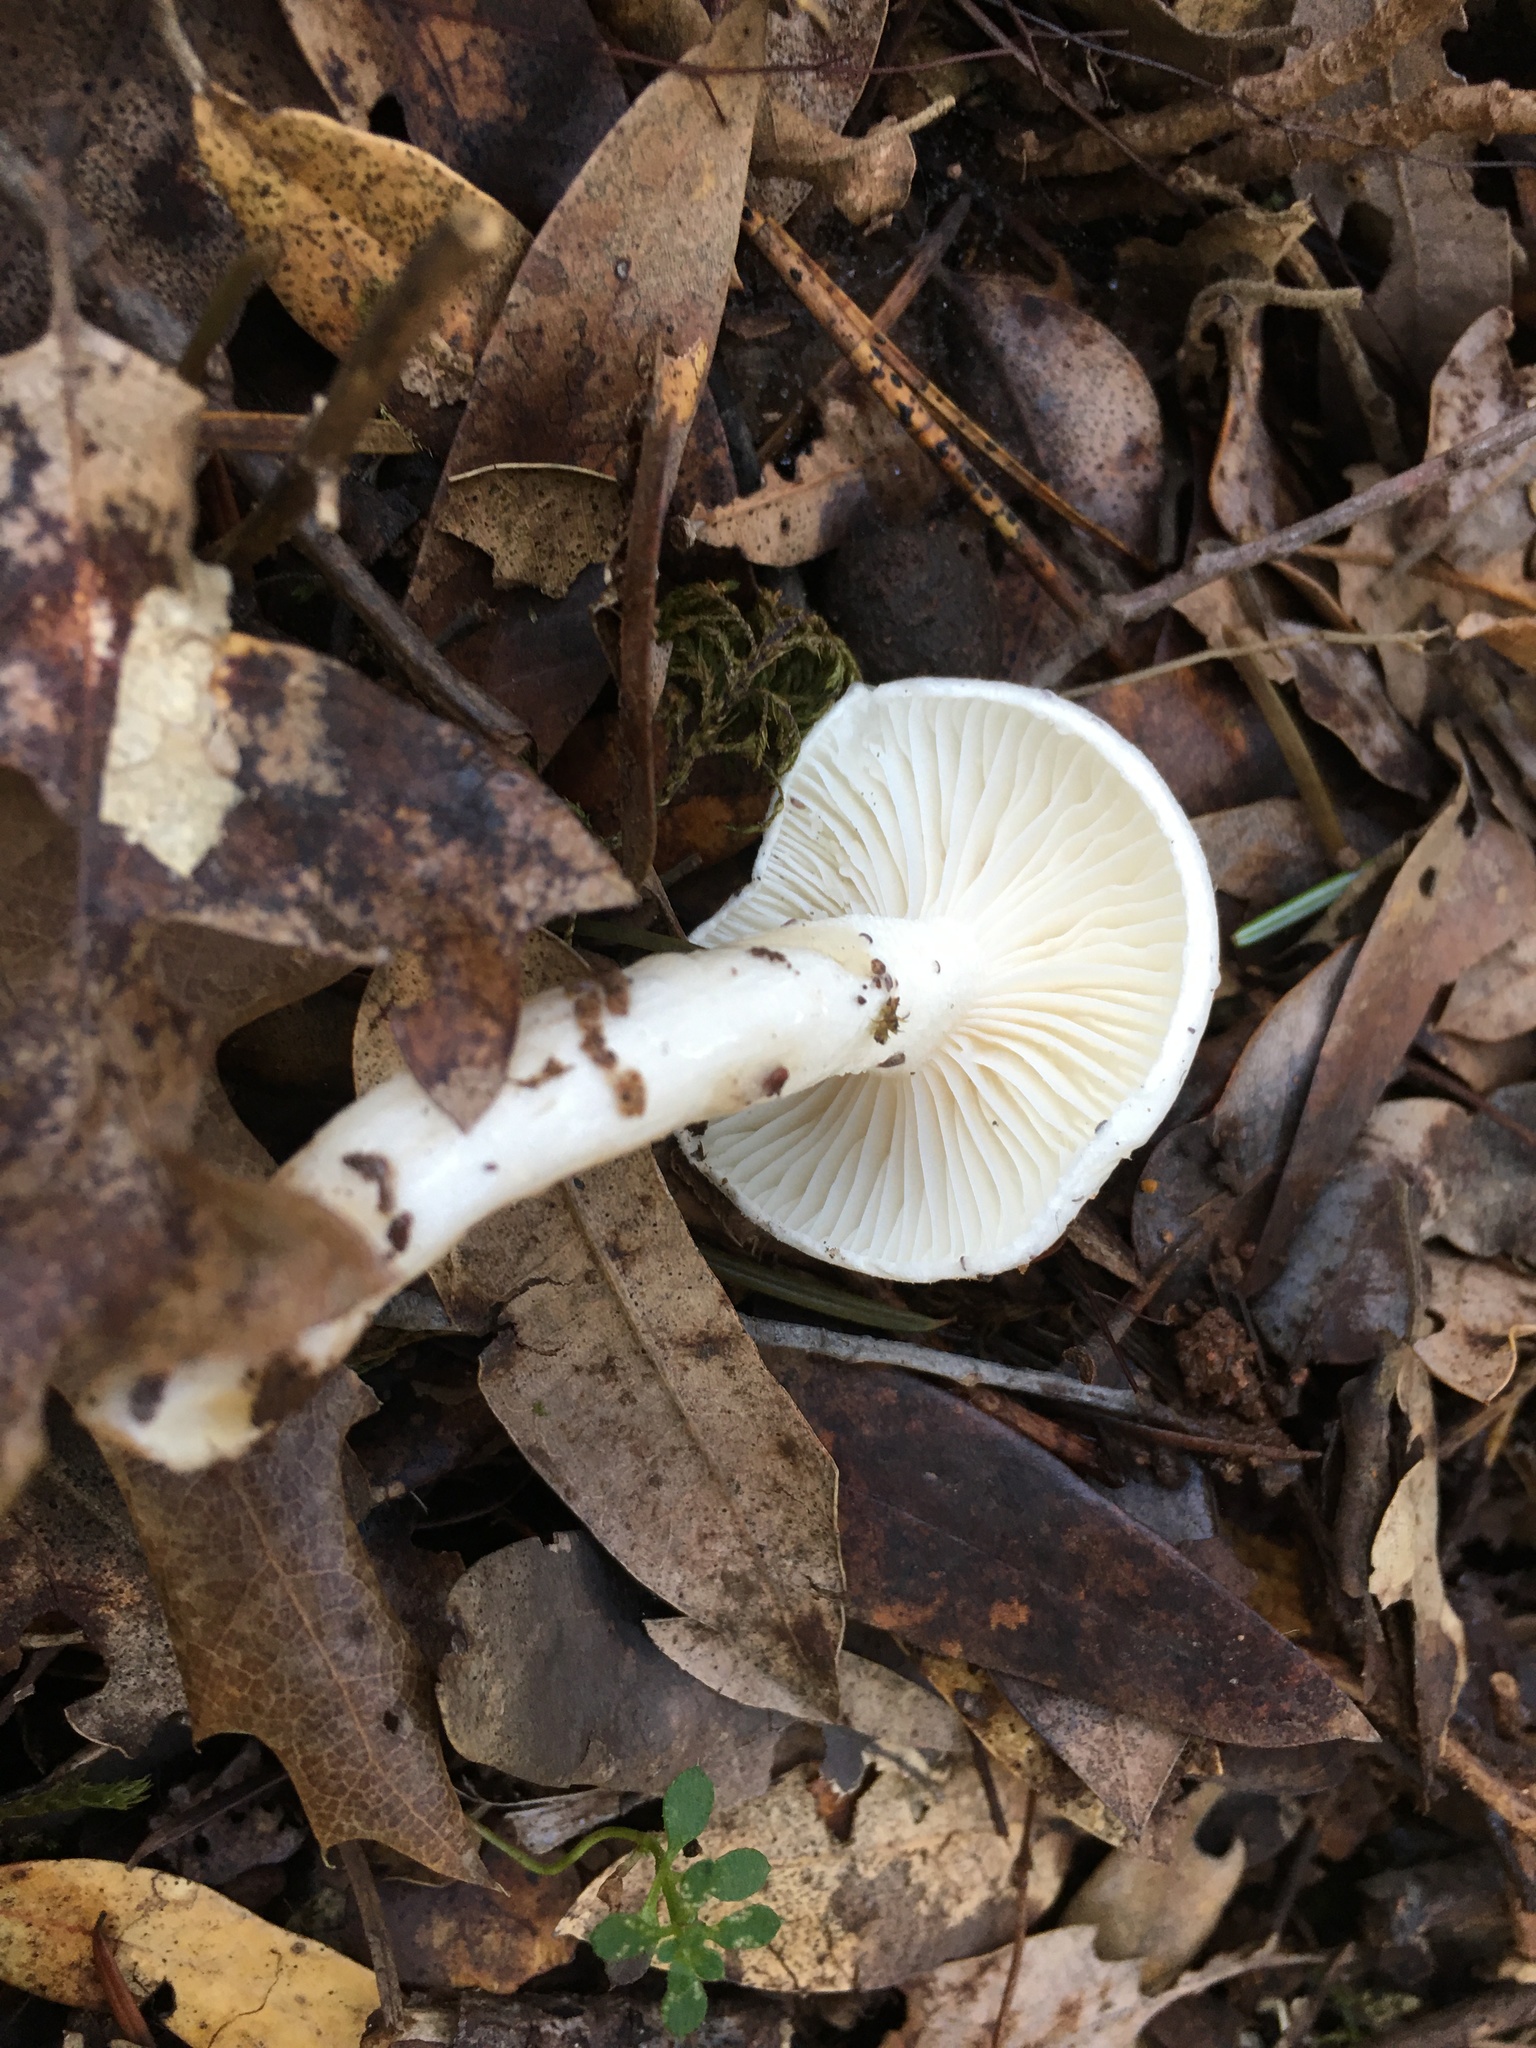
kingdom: Fungi
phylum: Basidiomycota
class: Agaricomycetes
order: Agaricales
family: Hygrophoraceae
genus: Hygrophorus
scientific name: Hygrophorus eburneus
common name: Ivory wax-cap
